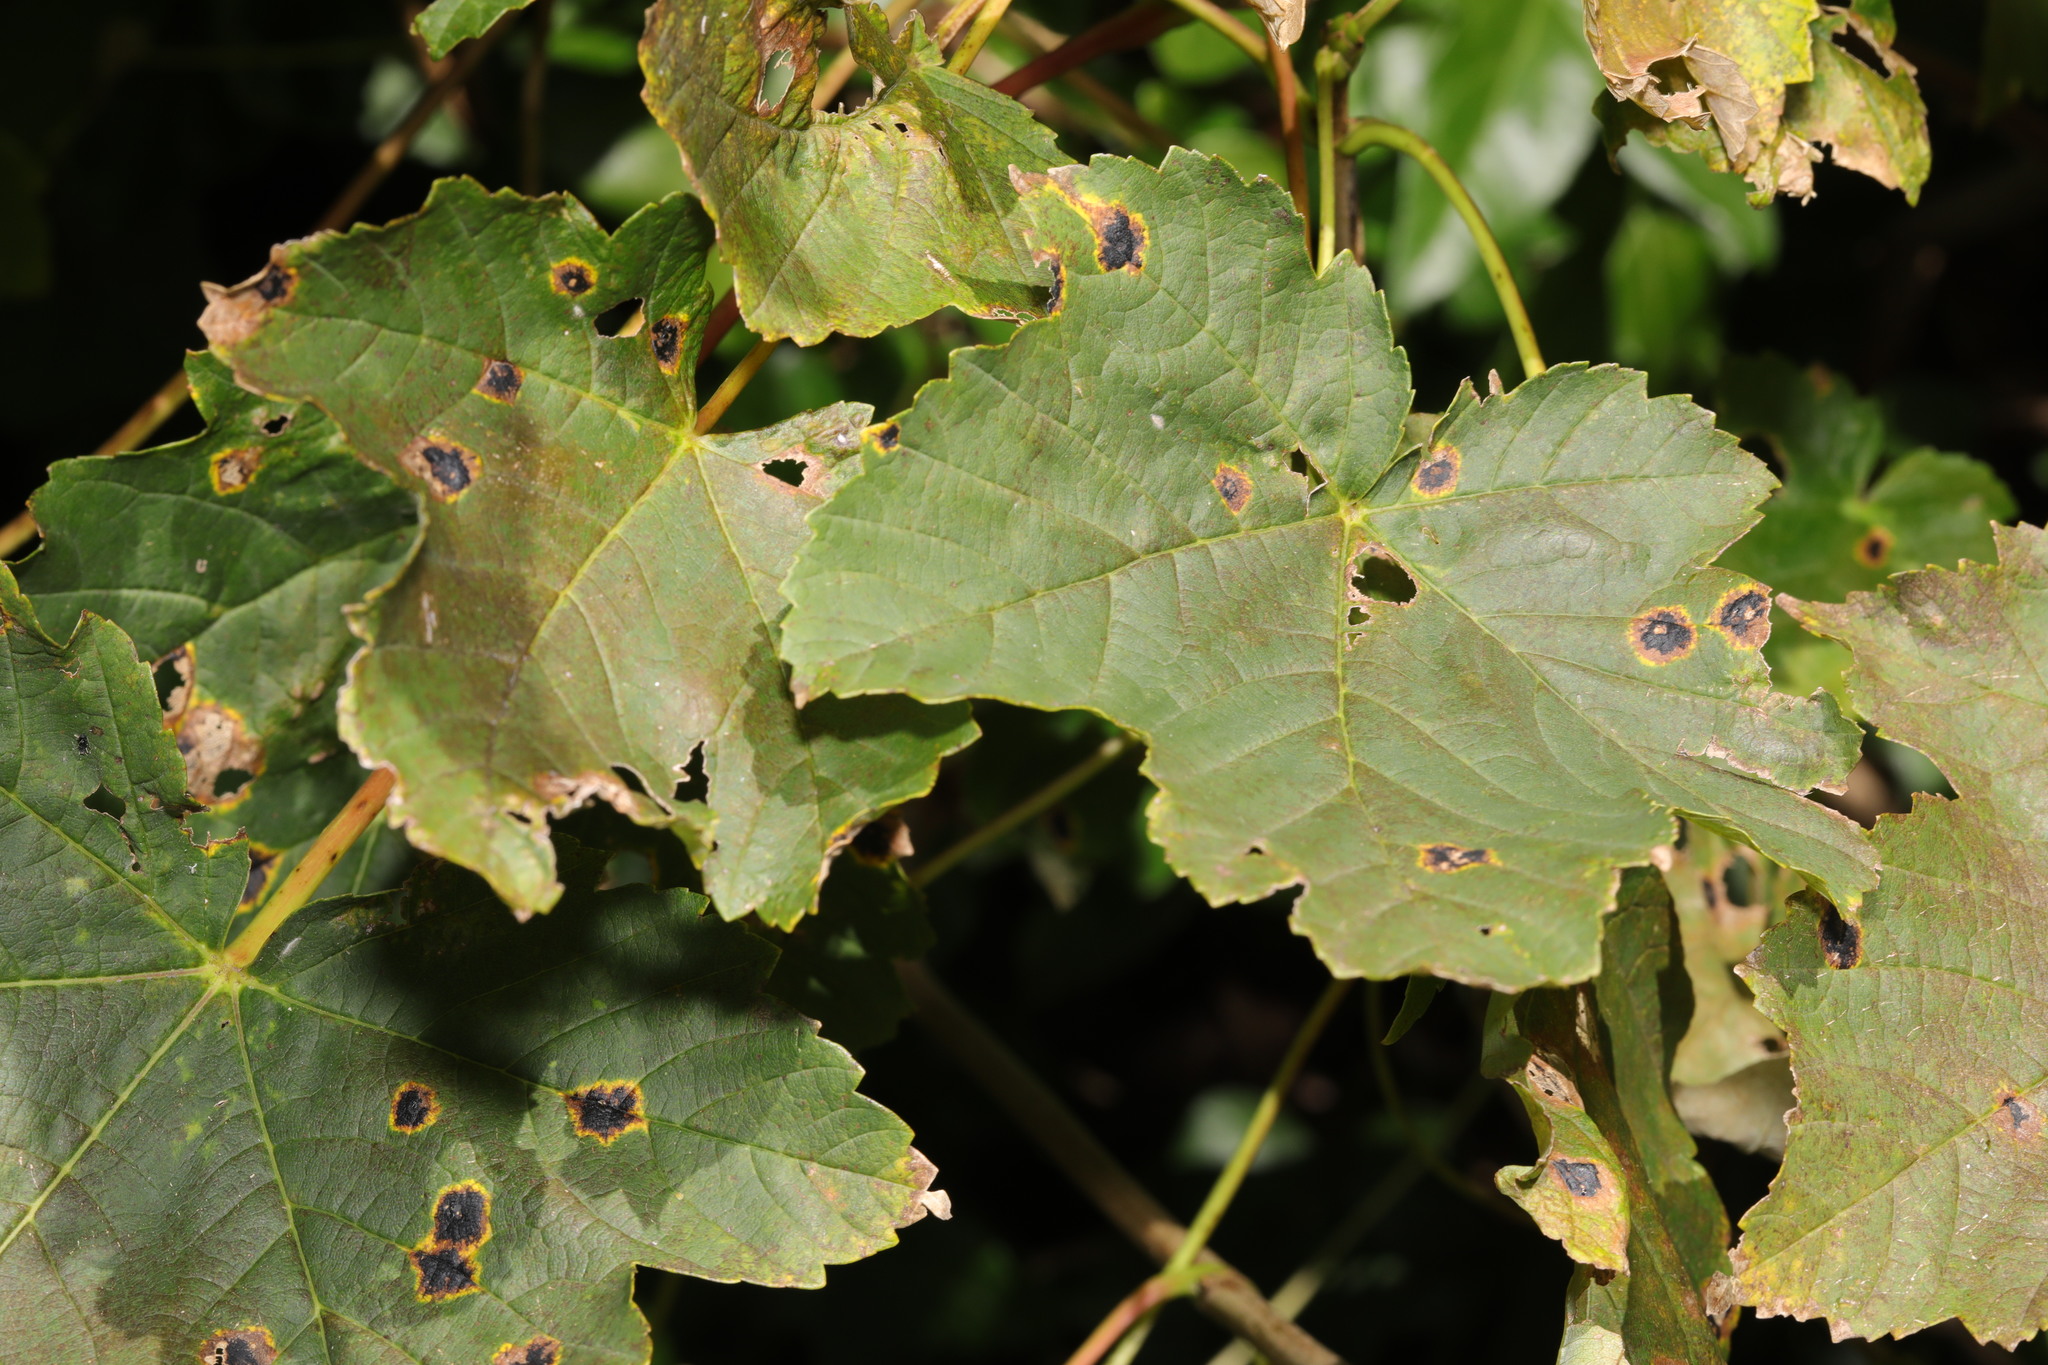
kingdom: Plantae
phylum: Tracheophyta
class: Magnoliopsida
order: Sapindales
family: Sapindaceae
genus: Acer
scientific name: Acer pseudoplatanus
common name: Sycamore
